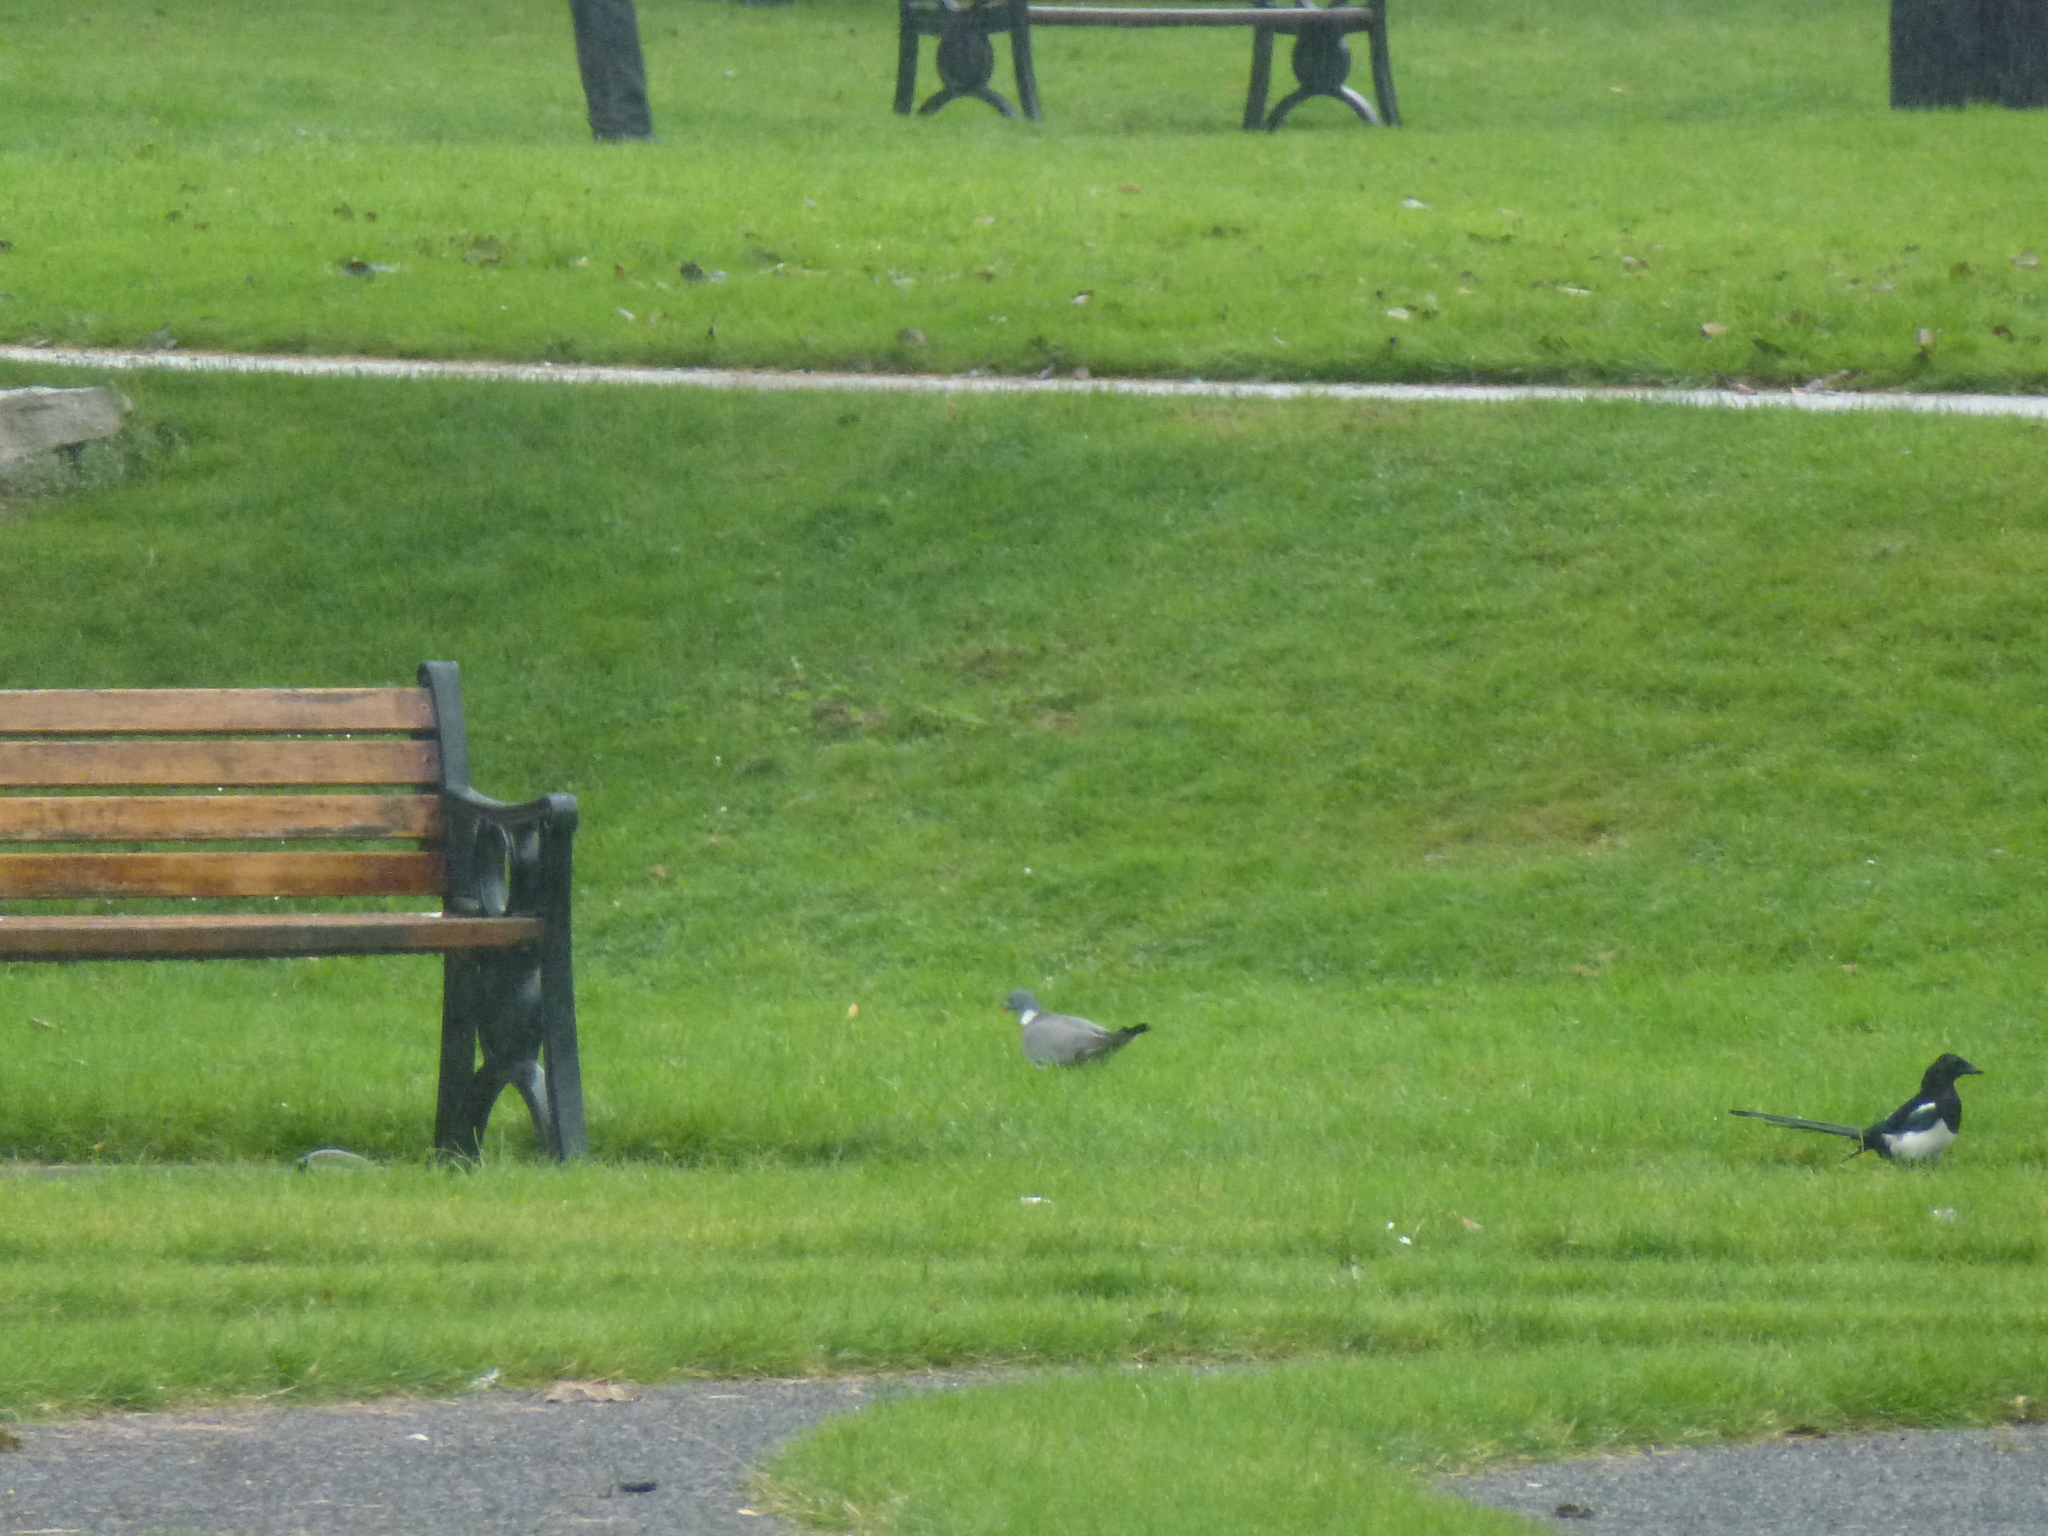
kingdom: Animalia
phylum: Chordata
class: Aves
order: Passeriformes
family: Corvidae
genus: Pica
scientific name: Pica pica
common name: Eurasian magpie
